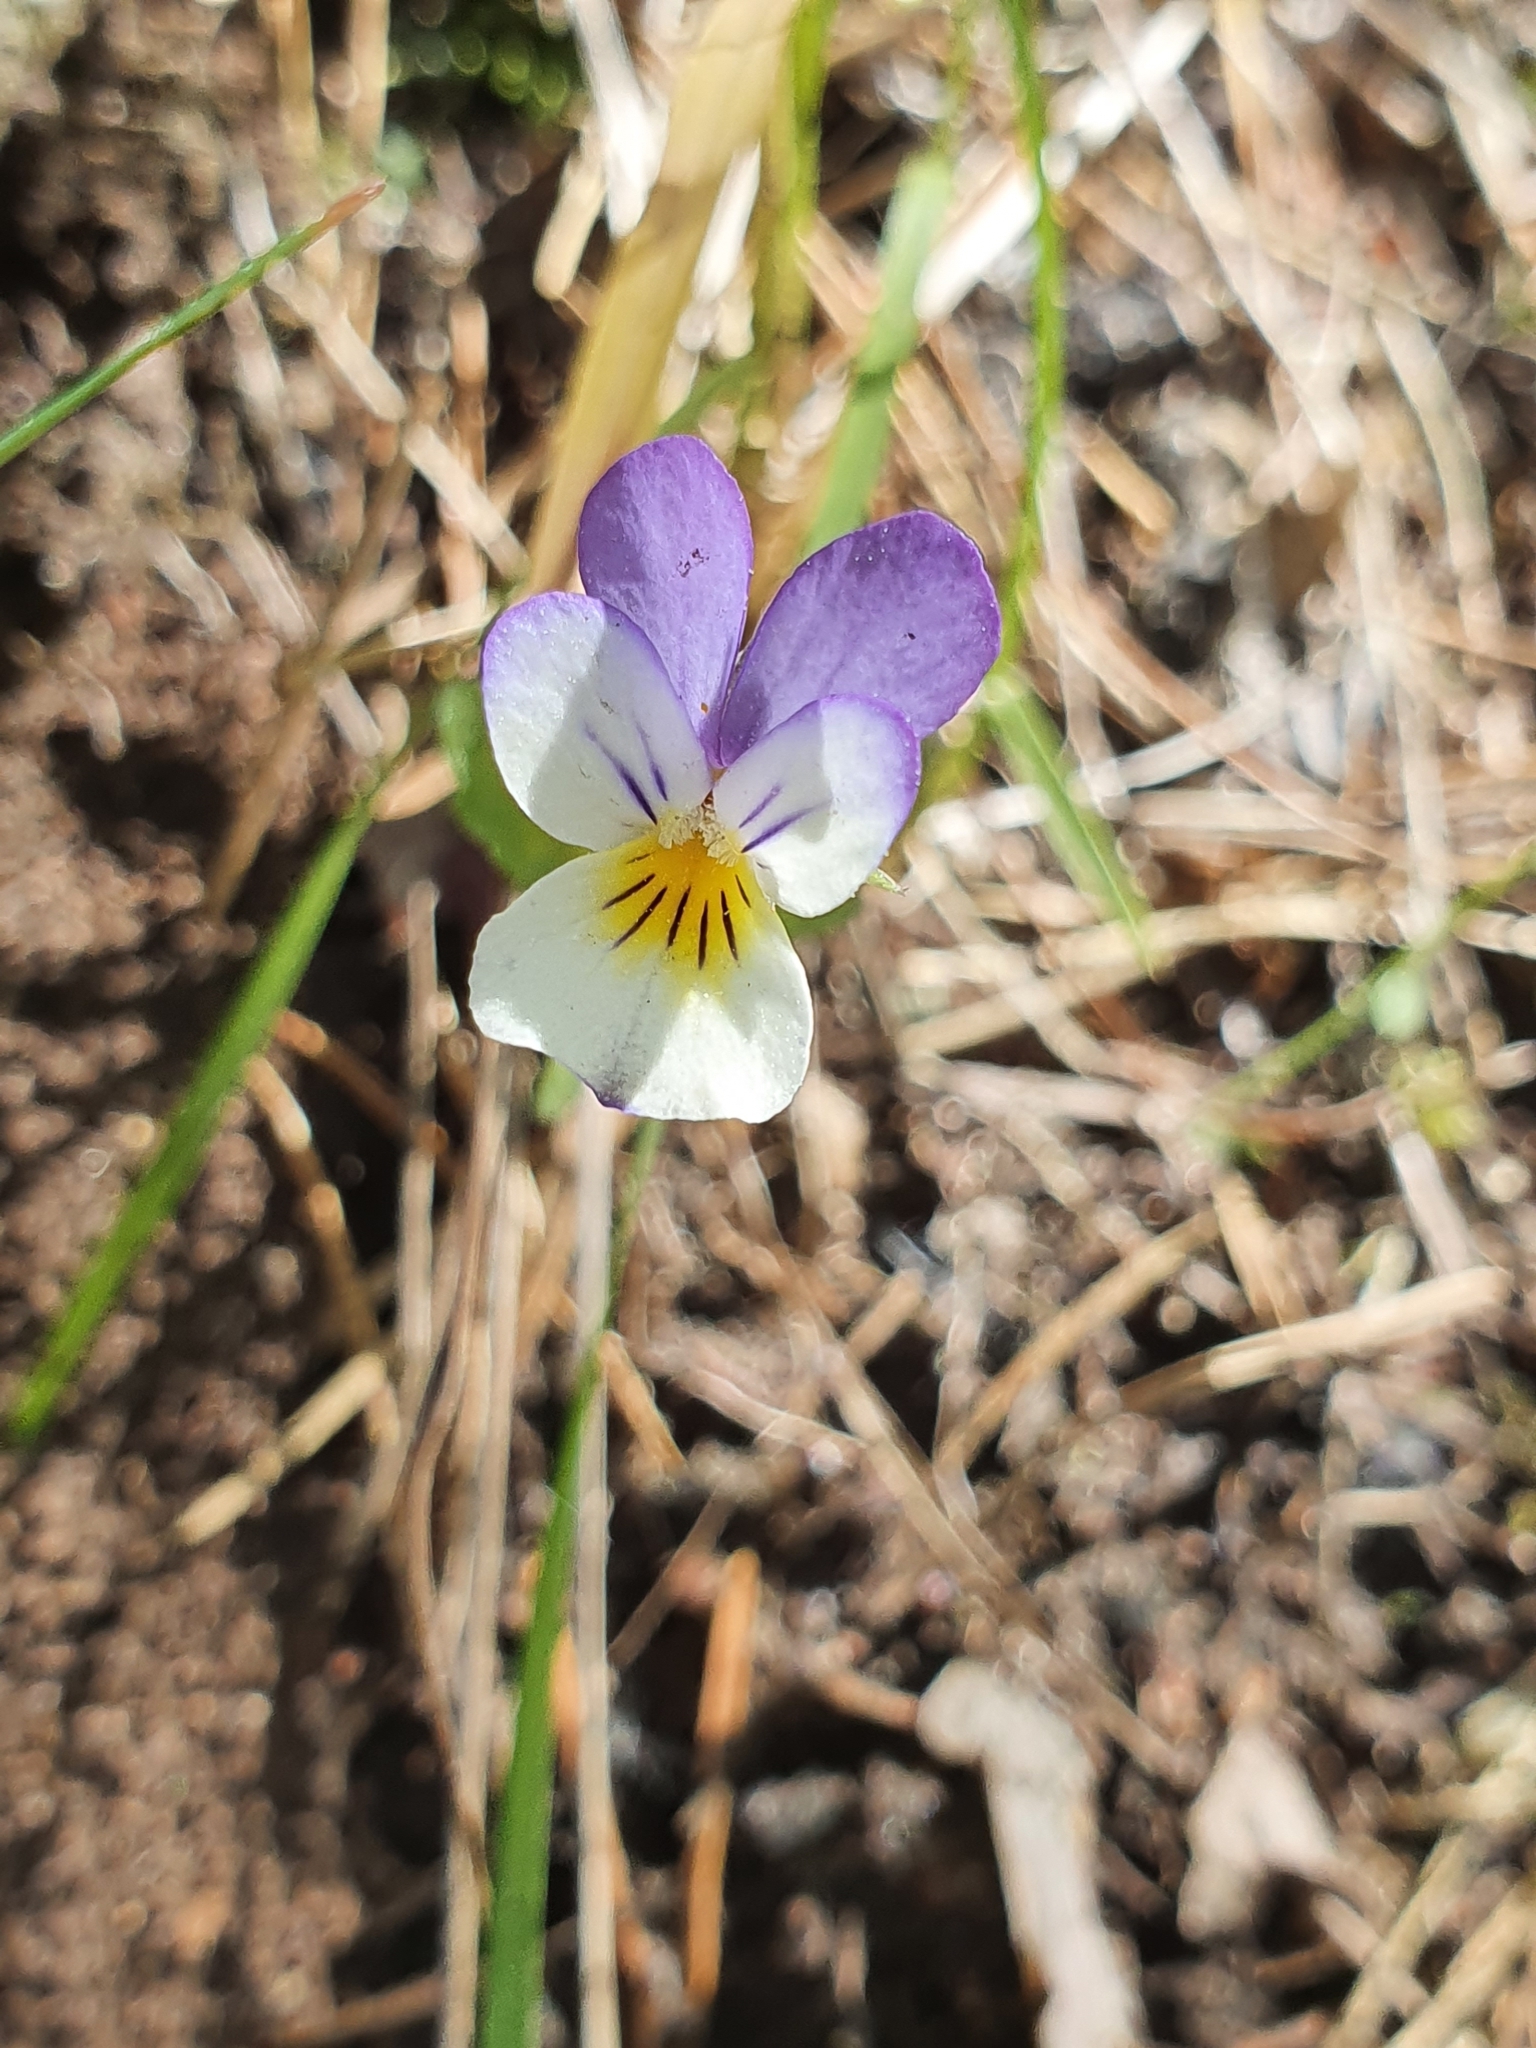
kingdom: Plantae
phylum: Tracheophyta
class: Magnoliopsida
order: Malpighiales
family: Violaceae
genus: Viola
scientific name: Viola tricolor
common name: Pansy
